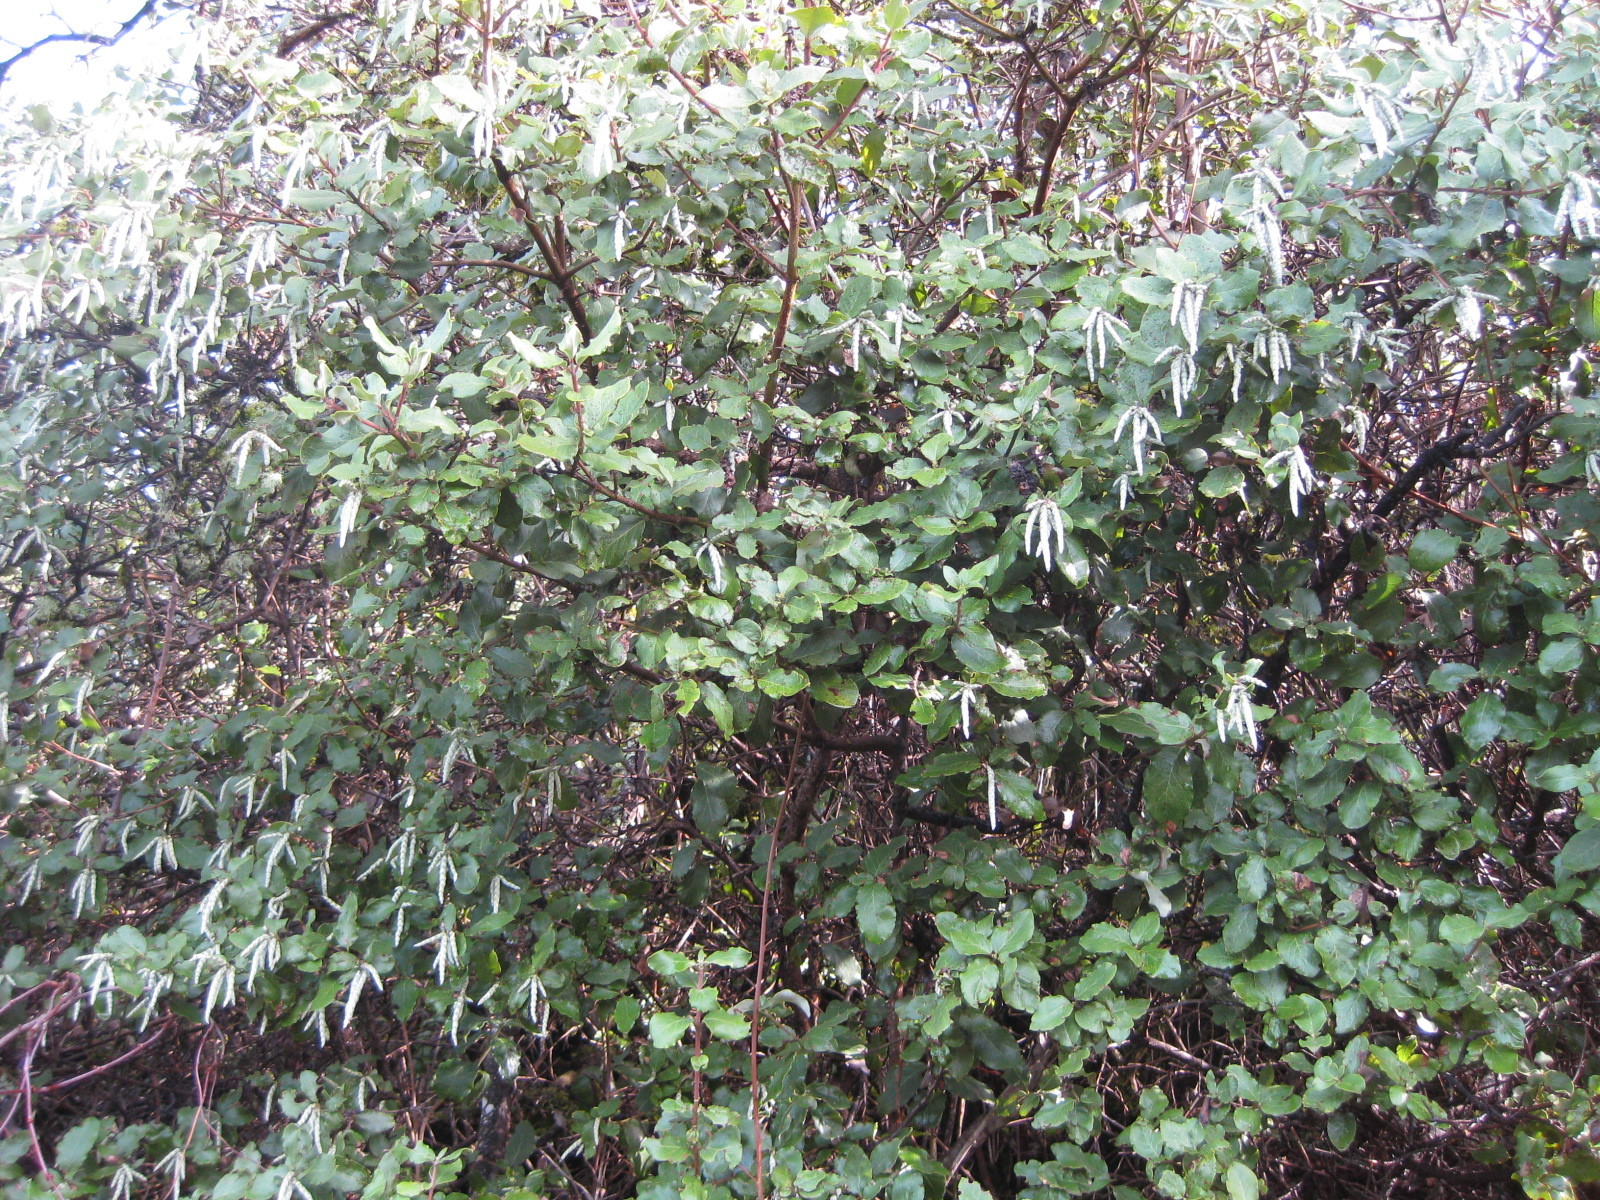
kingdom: Plantae
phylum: Tracheophyta
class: Magnoliopsida
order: Garryales
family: Garryaceae
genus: Garrya
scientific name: Garrya elliptica
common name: Silk-tassel
